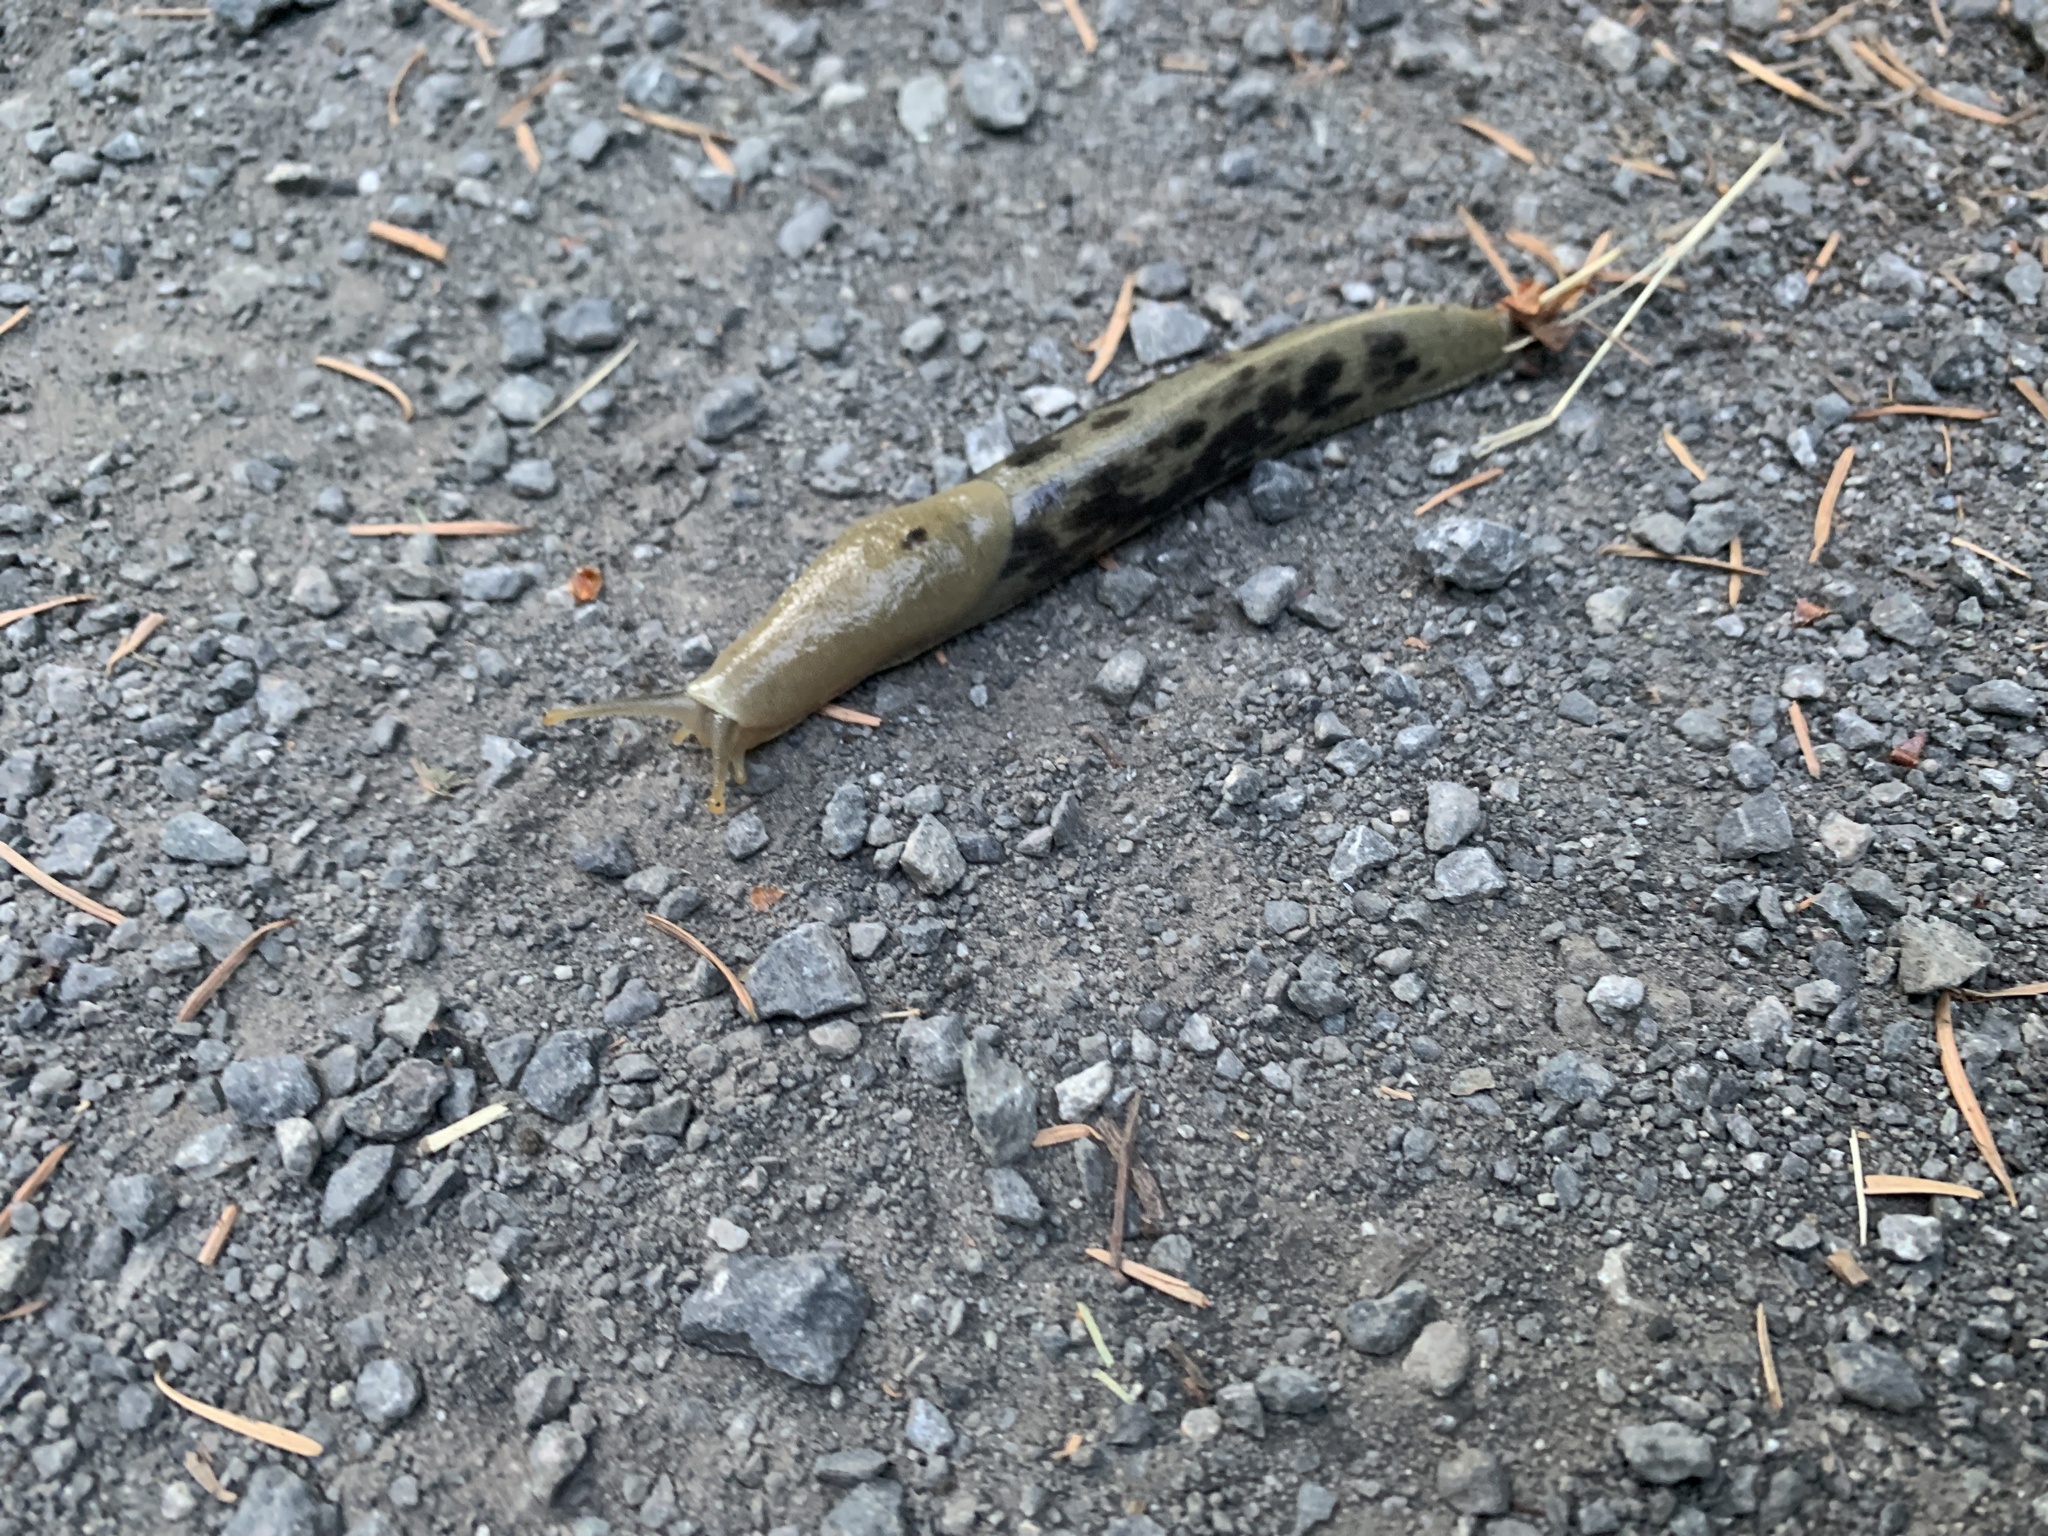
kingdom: Animalia
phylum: Mollusca
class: Gastropoda
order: Stylommatophora
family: Ariolimacidae
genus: Ariolimax
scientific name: Ariolimax columbianus
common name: Pacific banana slug
